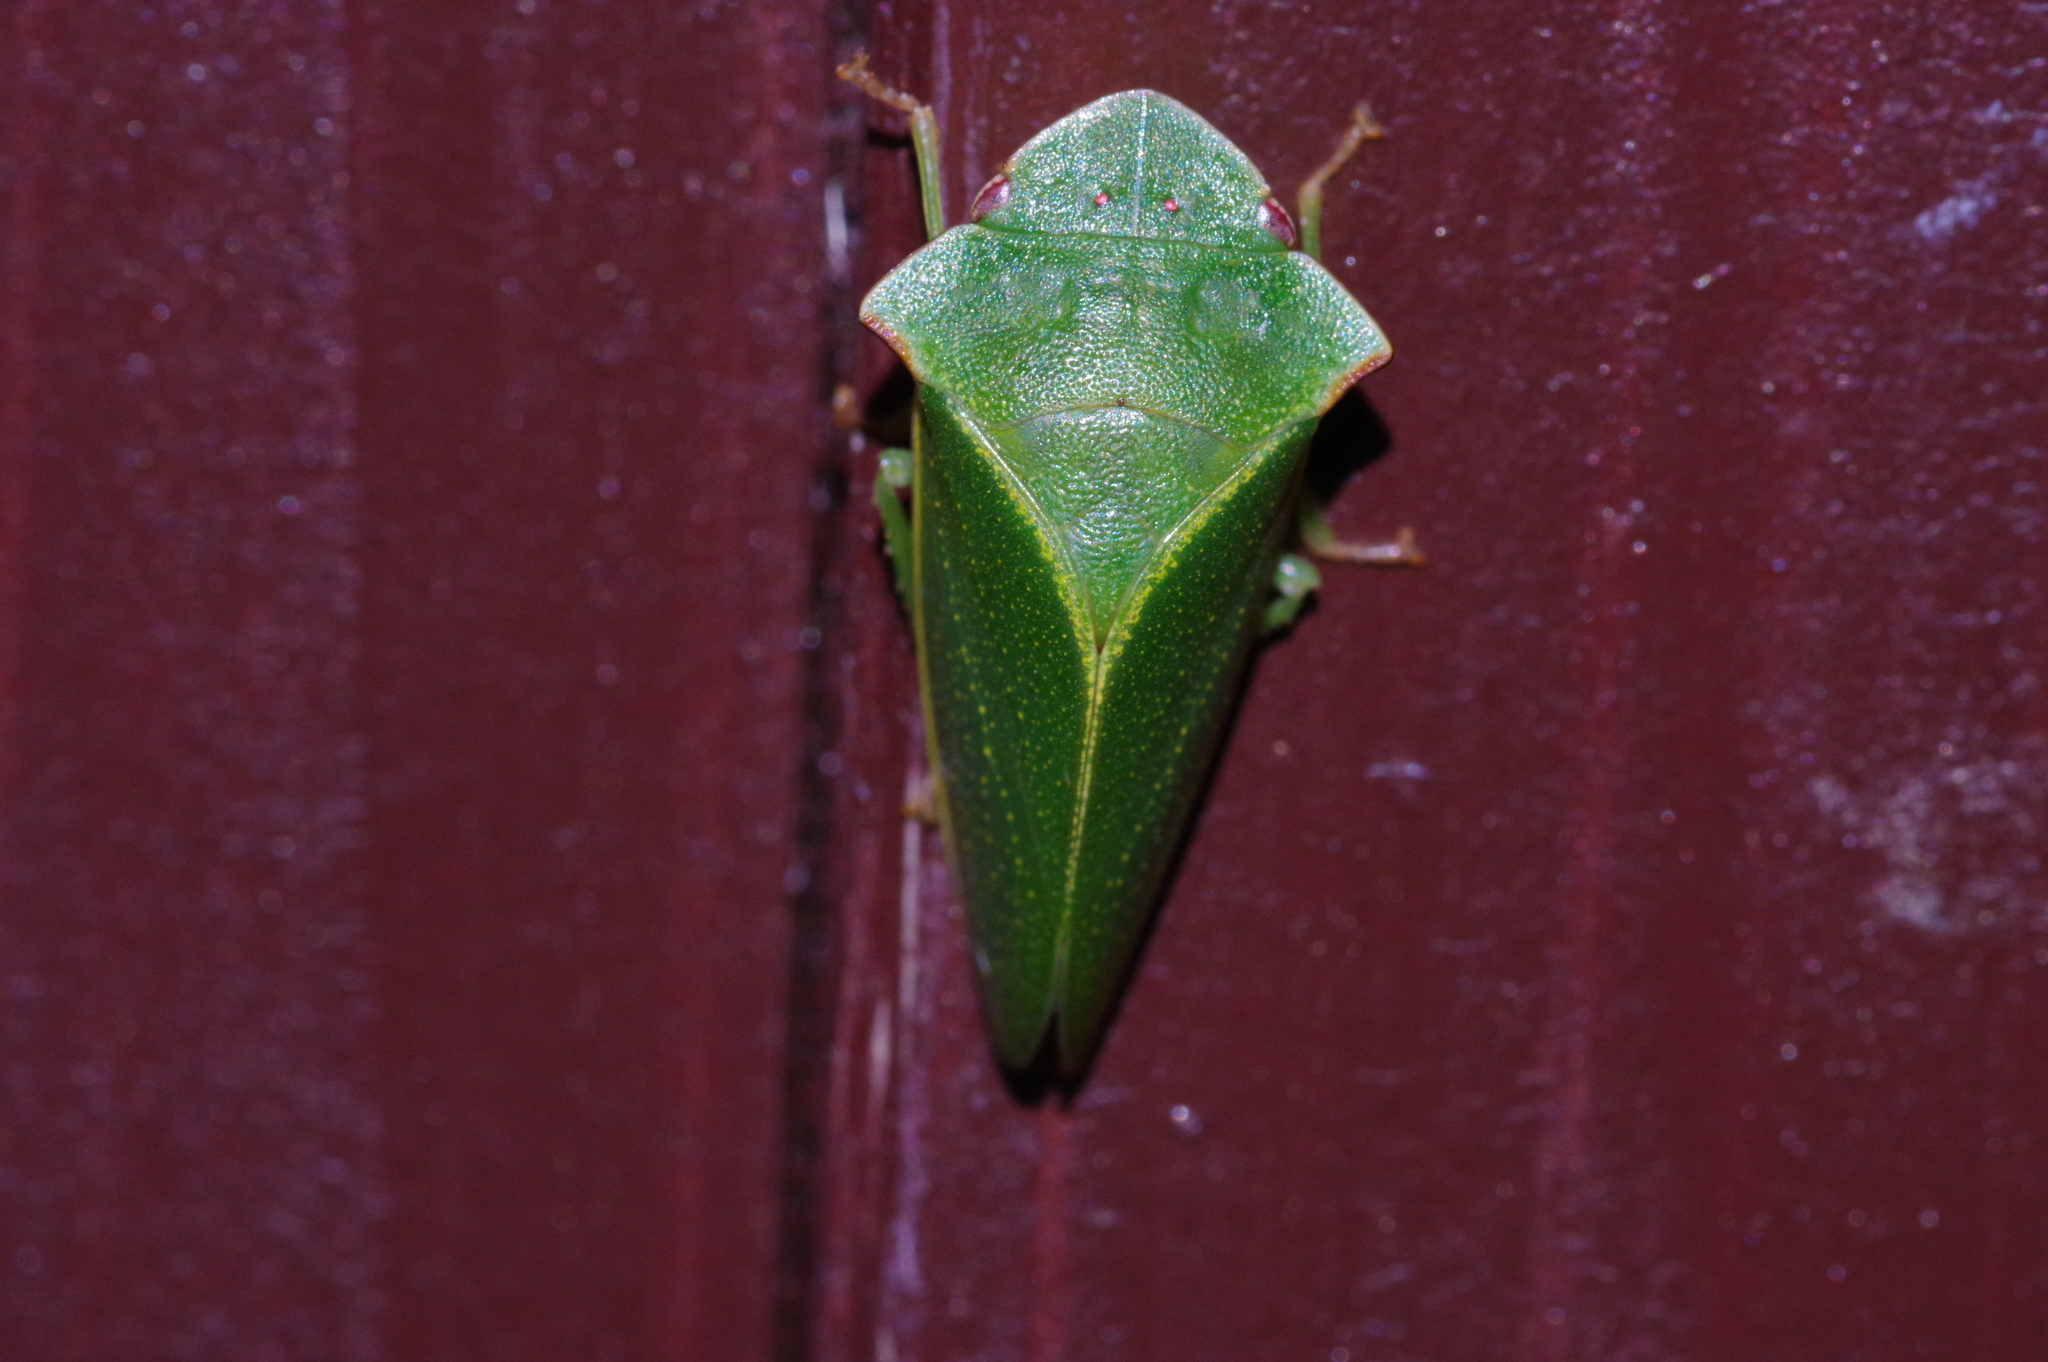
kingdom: Animalia
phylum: Arthropoda
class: Insecta
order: Hemiptera
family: Cicadellidae
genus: Tituria
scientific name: Tituria angulata
